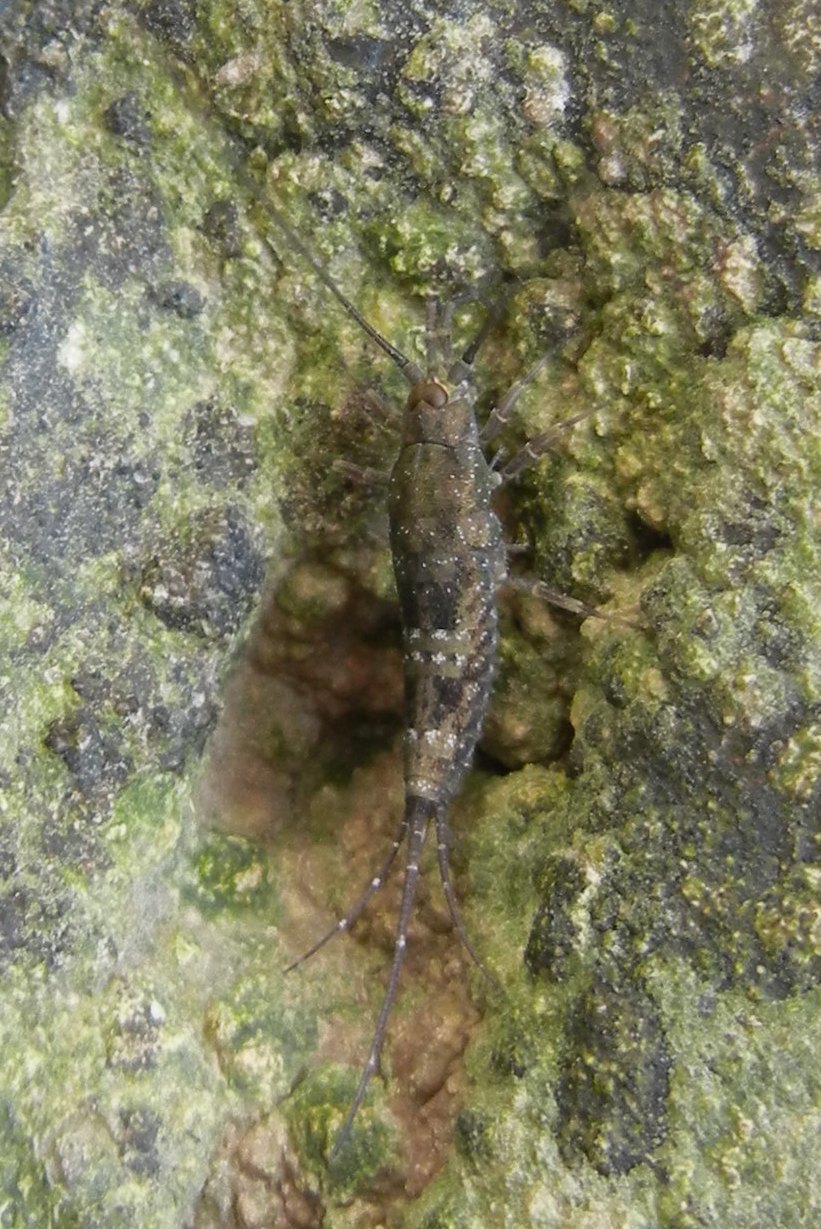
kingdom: Animalia
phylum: Arthropoda
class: Insecta
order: Archaeognatha
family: Machilidae
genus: Petrobius
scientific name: Petrobius brevistylis
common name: Jumping bristletail
